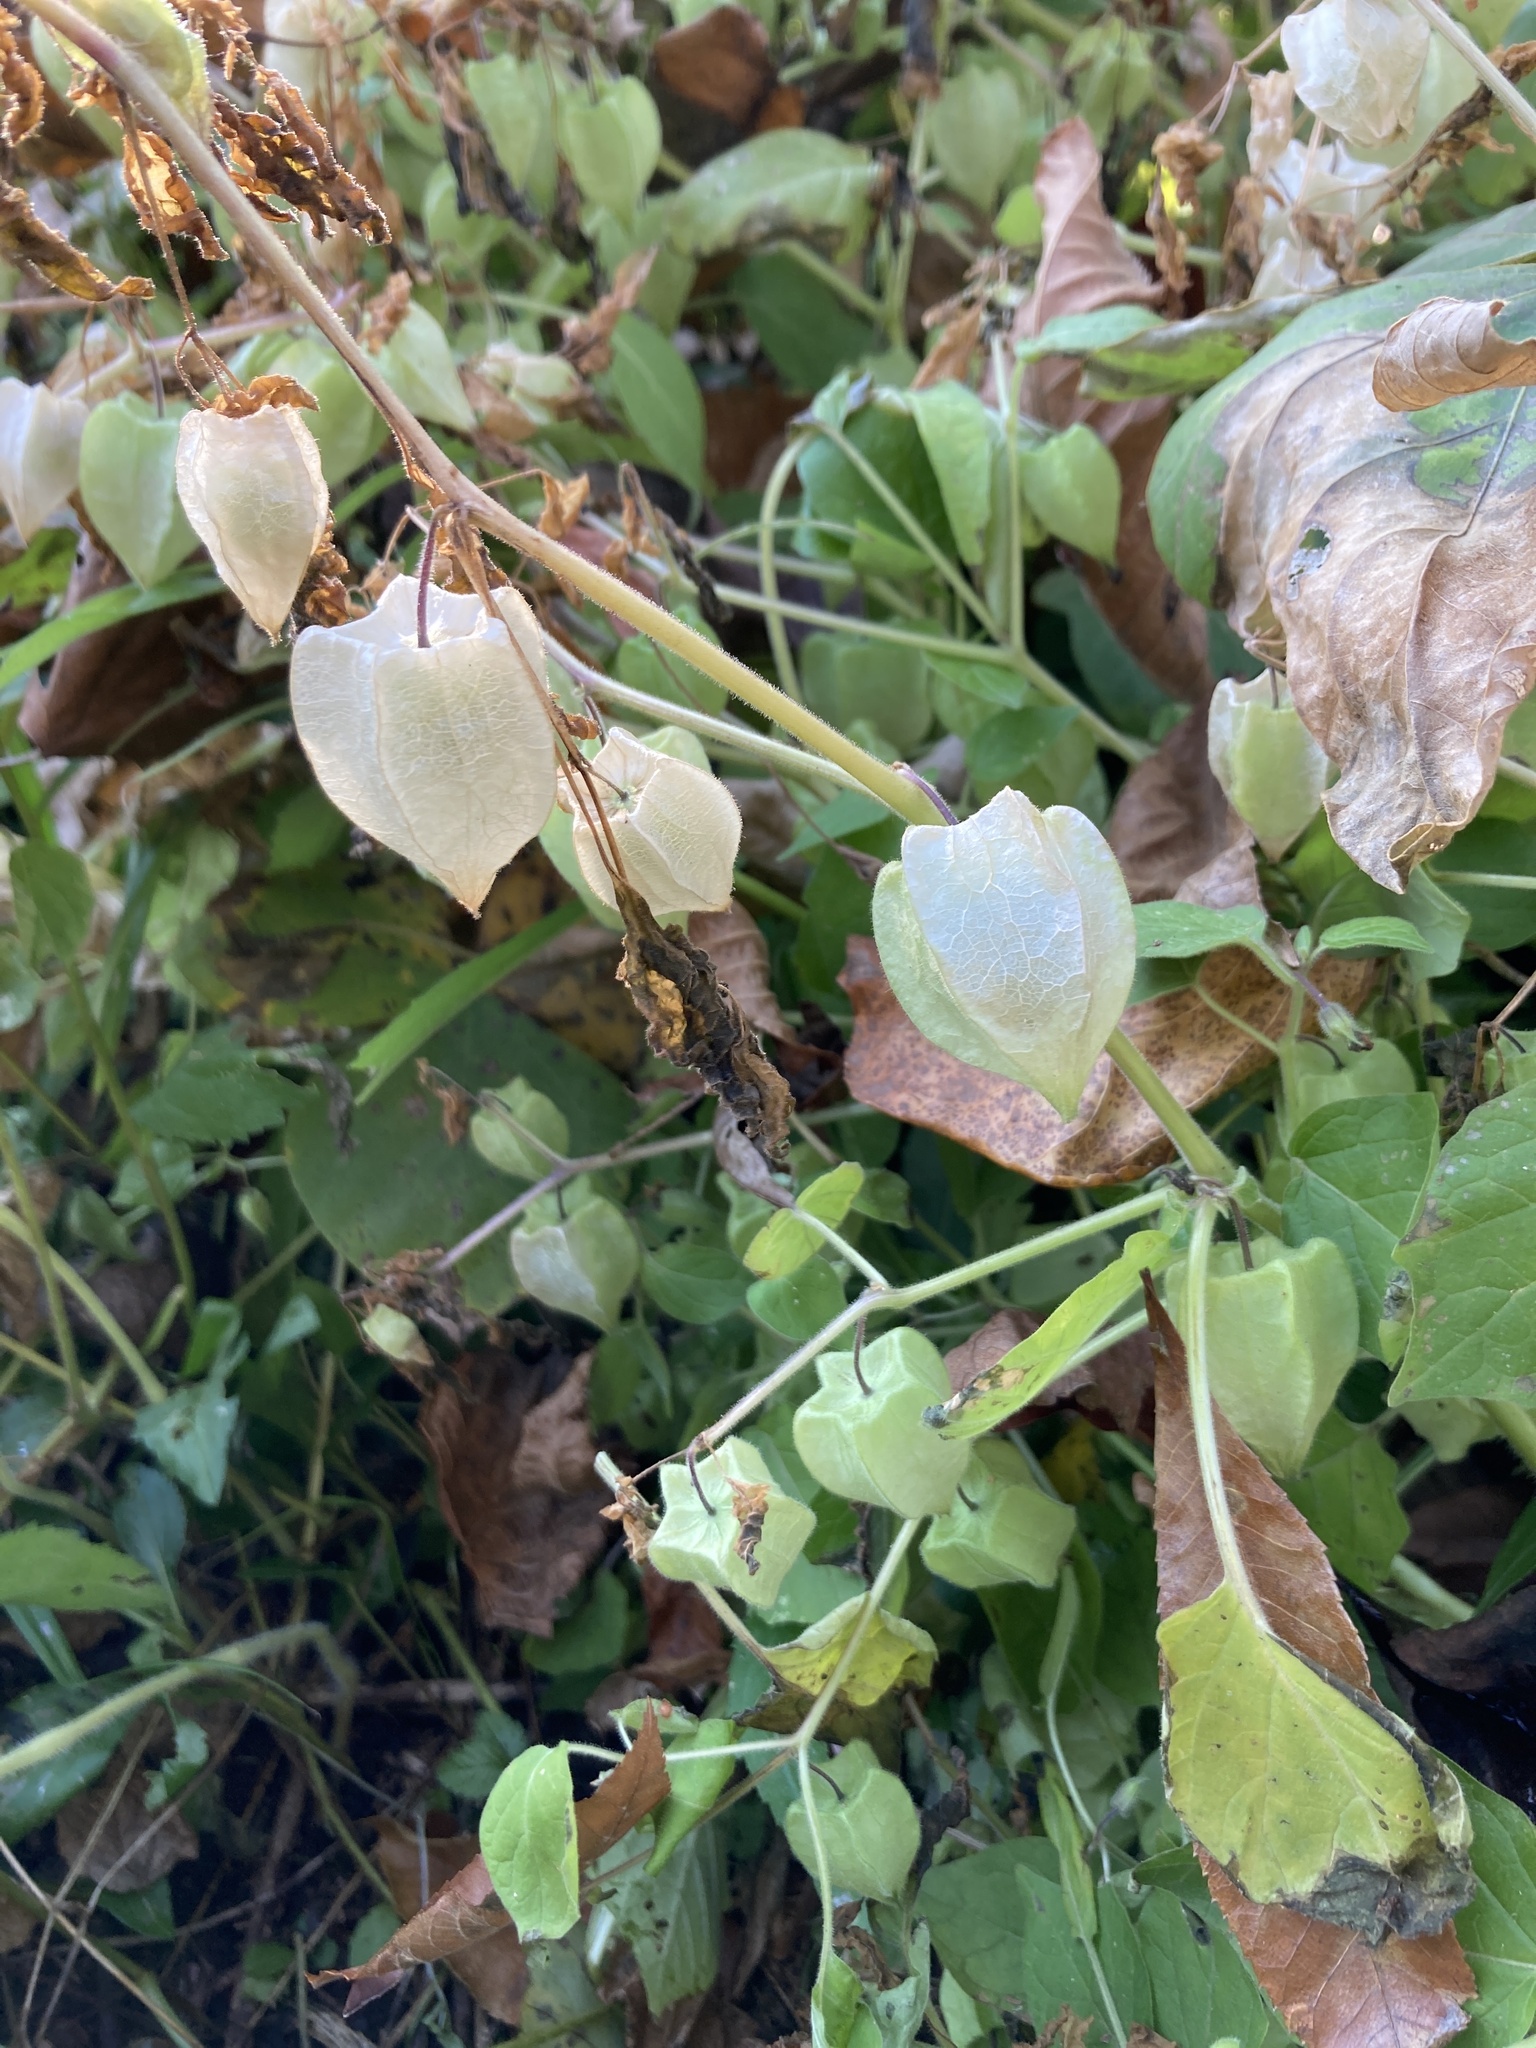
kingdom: Plantae
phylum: Tracheophyta
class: Magnoliopsida
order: Solanales
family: Solanaceae
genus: Physalis
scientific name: Physalis pubescens
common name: Downy ground-cherry
